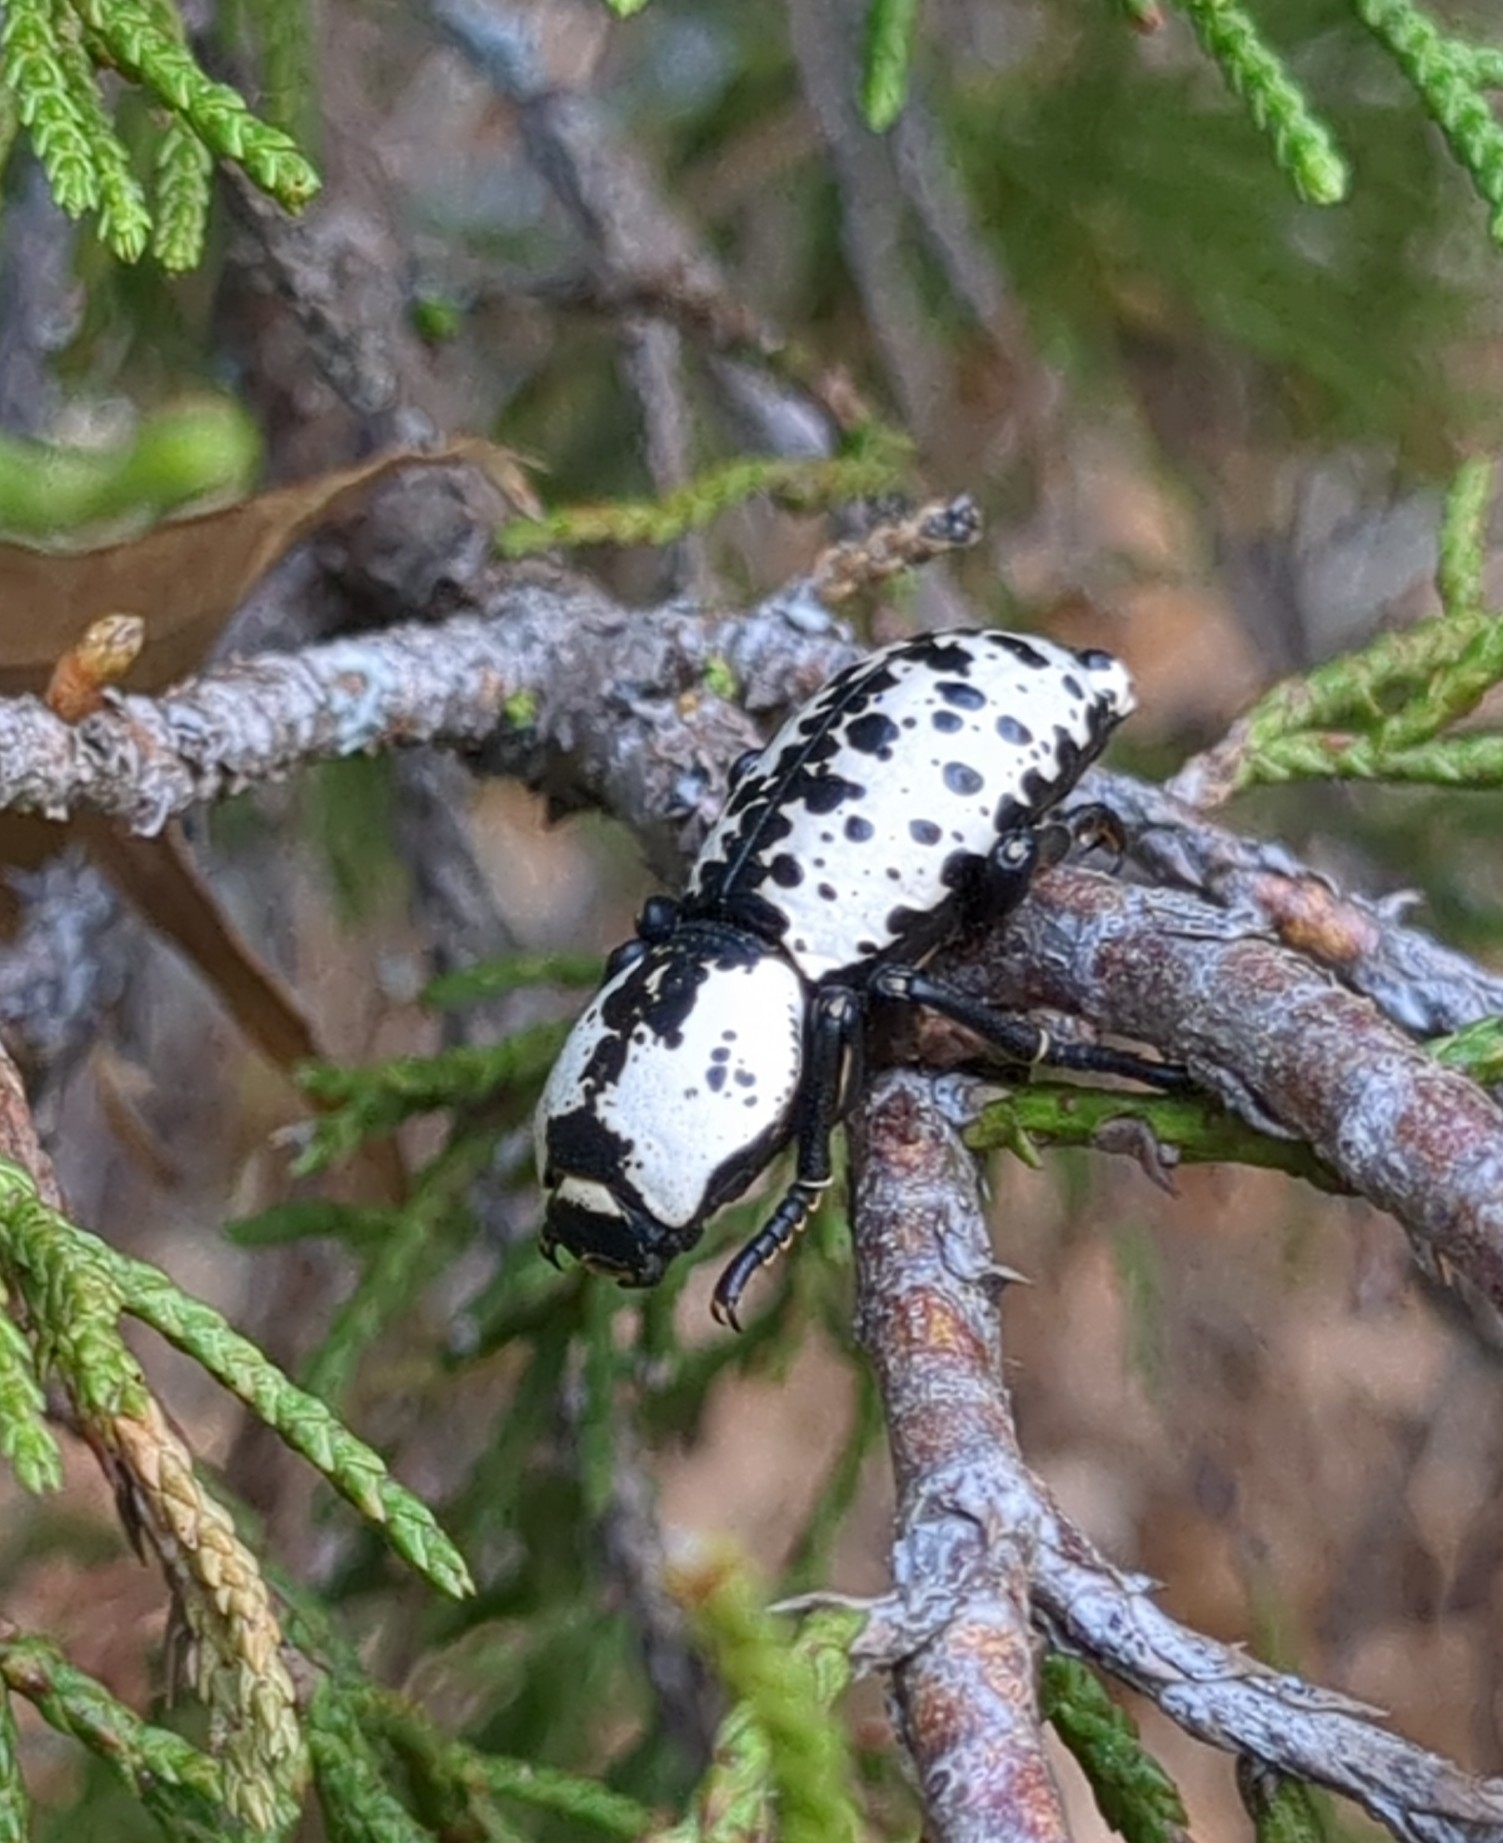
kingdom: Animalia
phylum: Arthropoda
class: Insecta
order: Coleoptera
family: Zopheridae
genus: Zopherus
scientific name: Zopherus nodulosus
